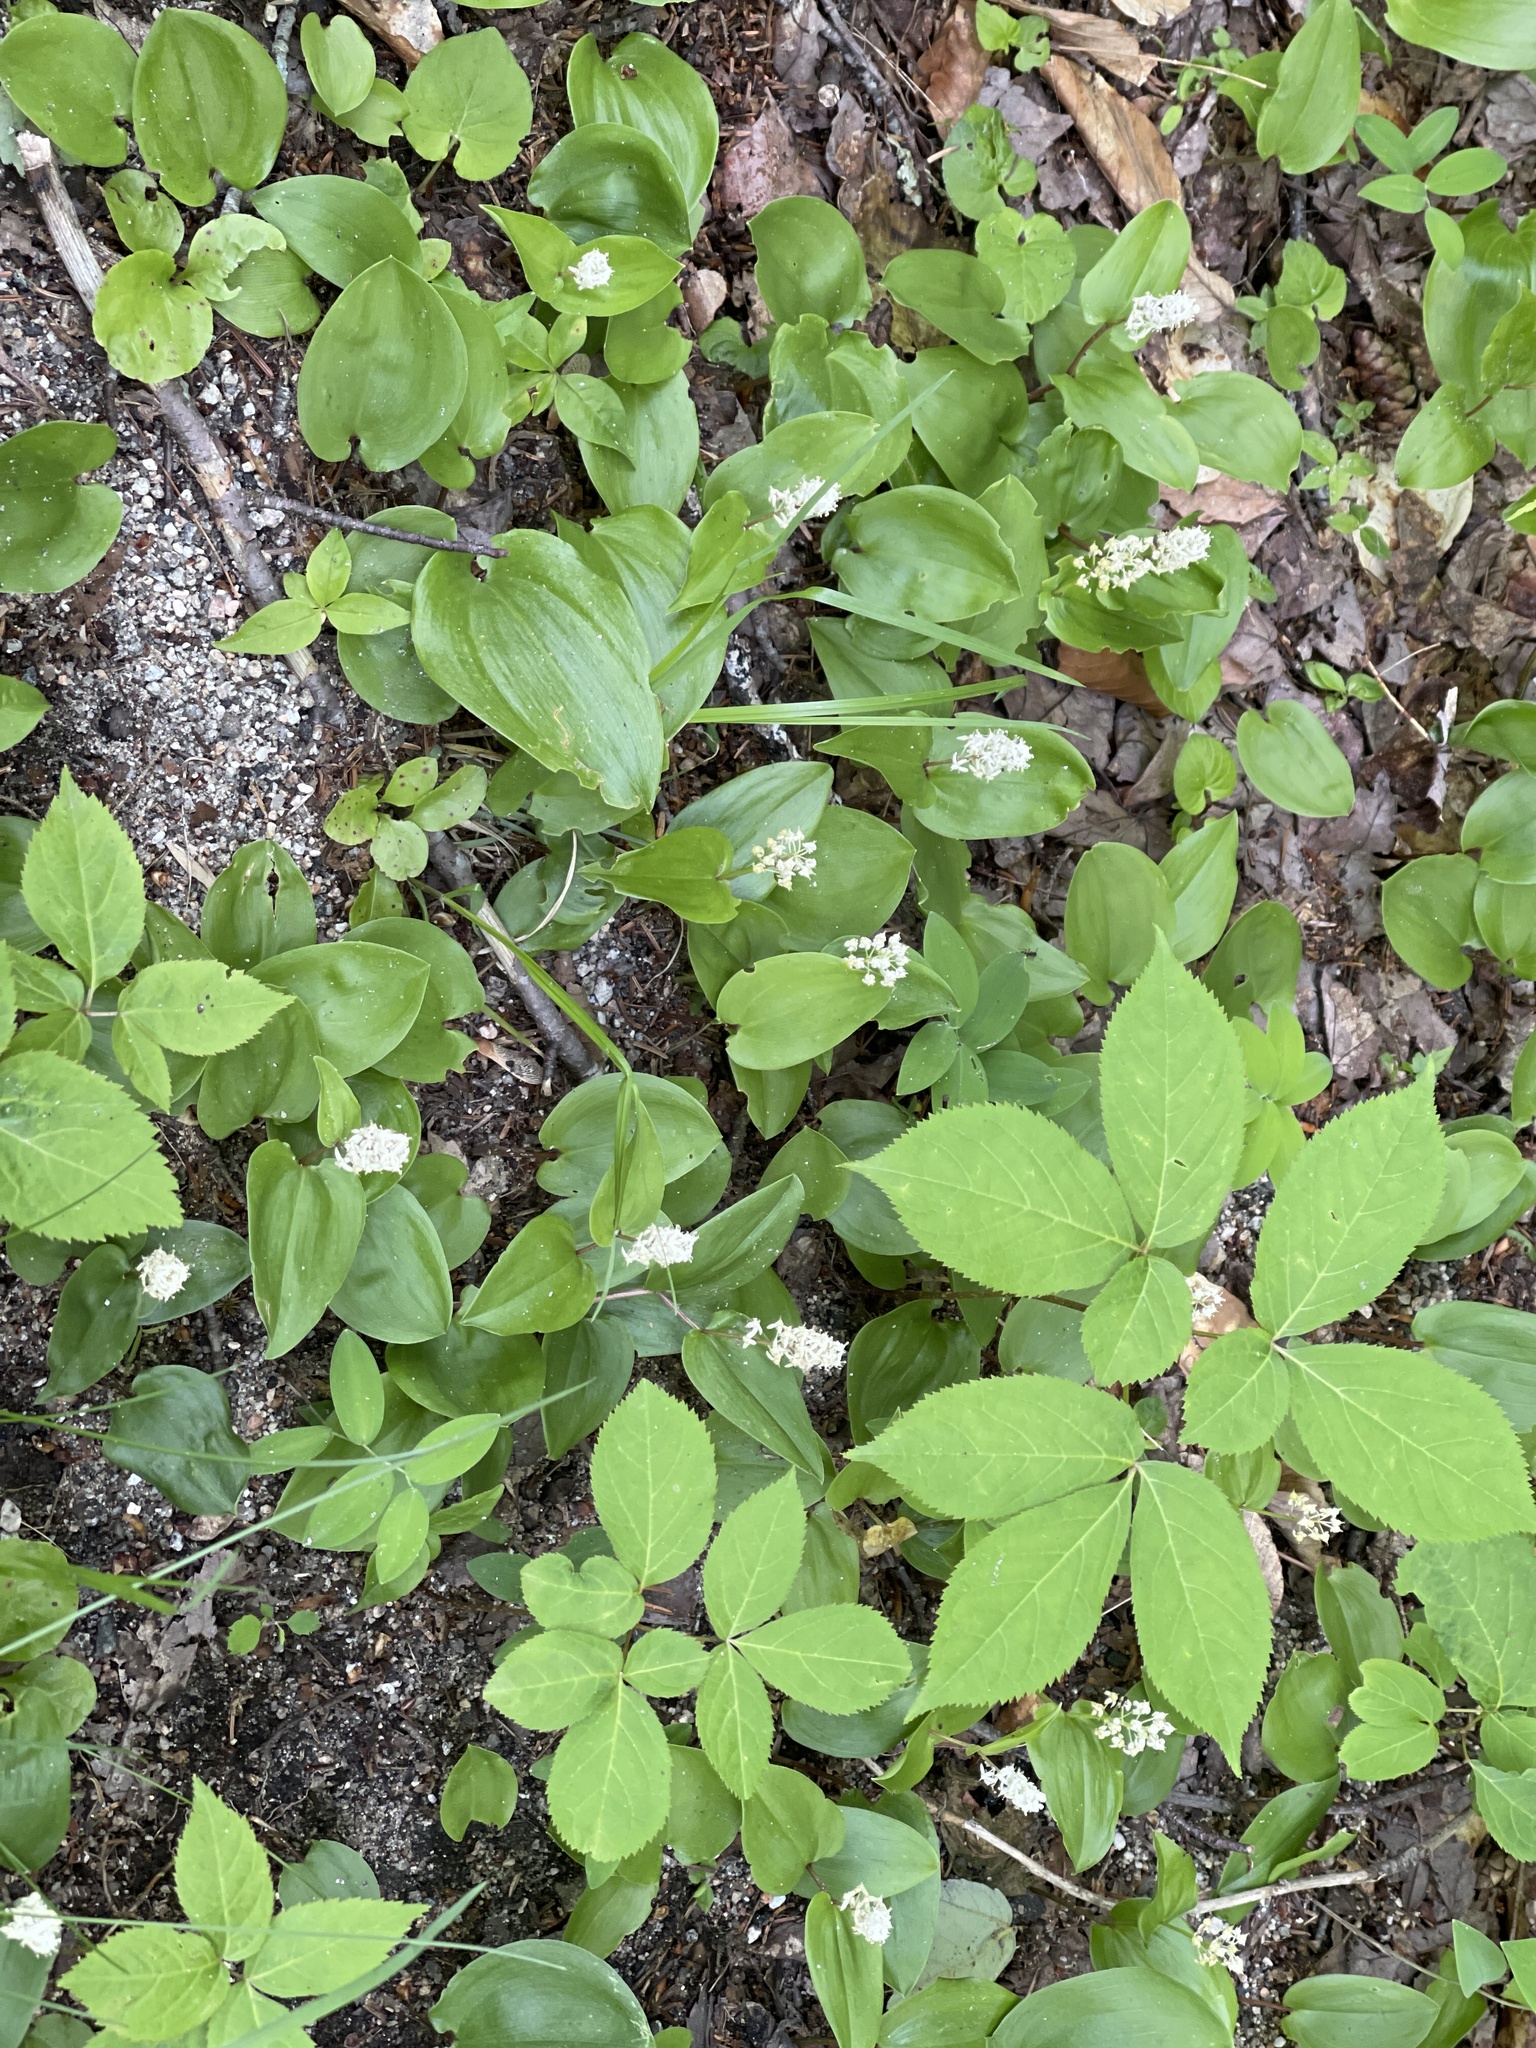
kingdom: Plantae
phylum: Tracheophyta
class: Liliopsida
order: Asparagales
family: Asparagaceae
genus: Maianthemum
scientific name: Maianthemum canadense
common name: False lily-of-the-valley
